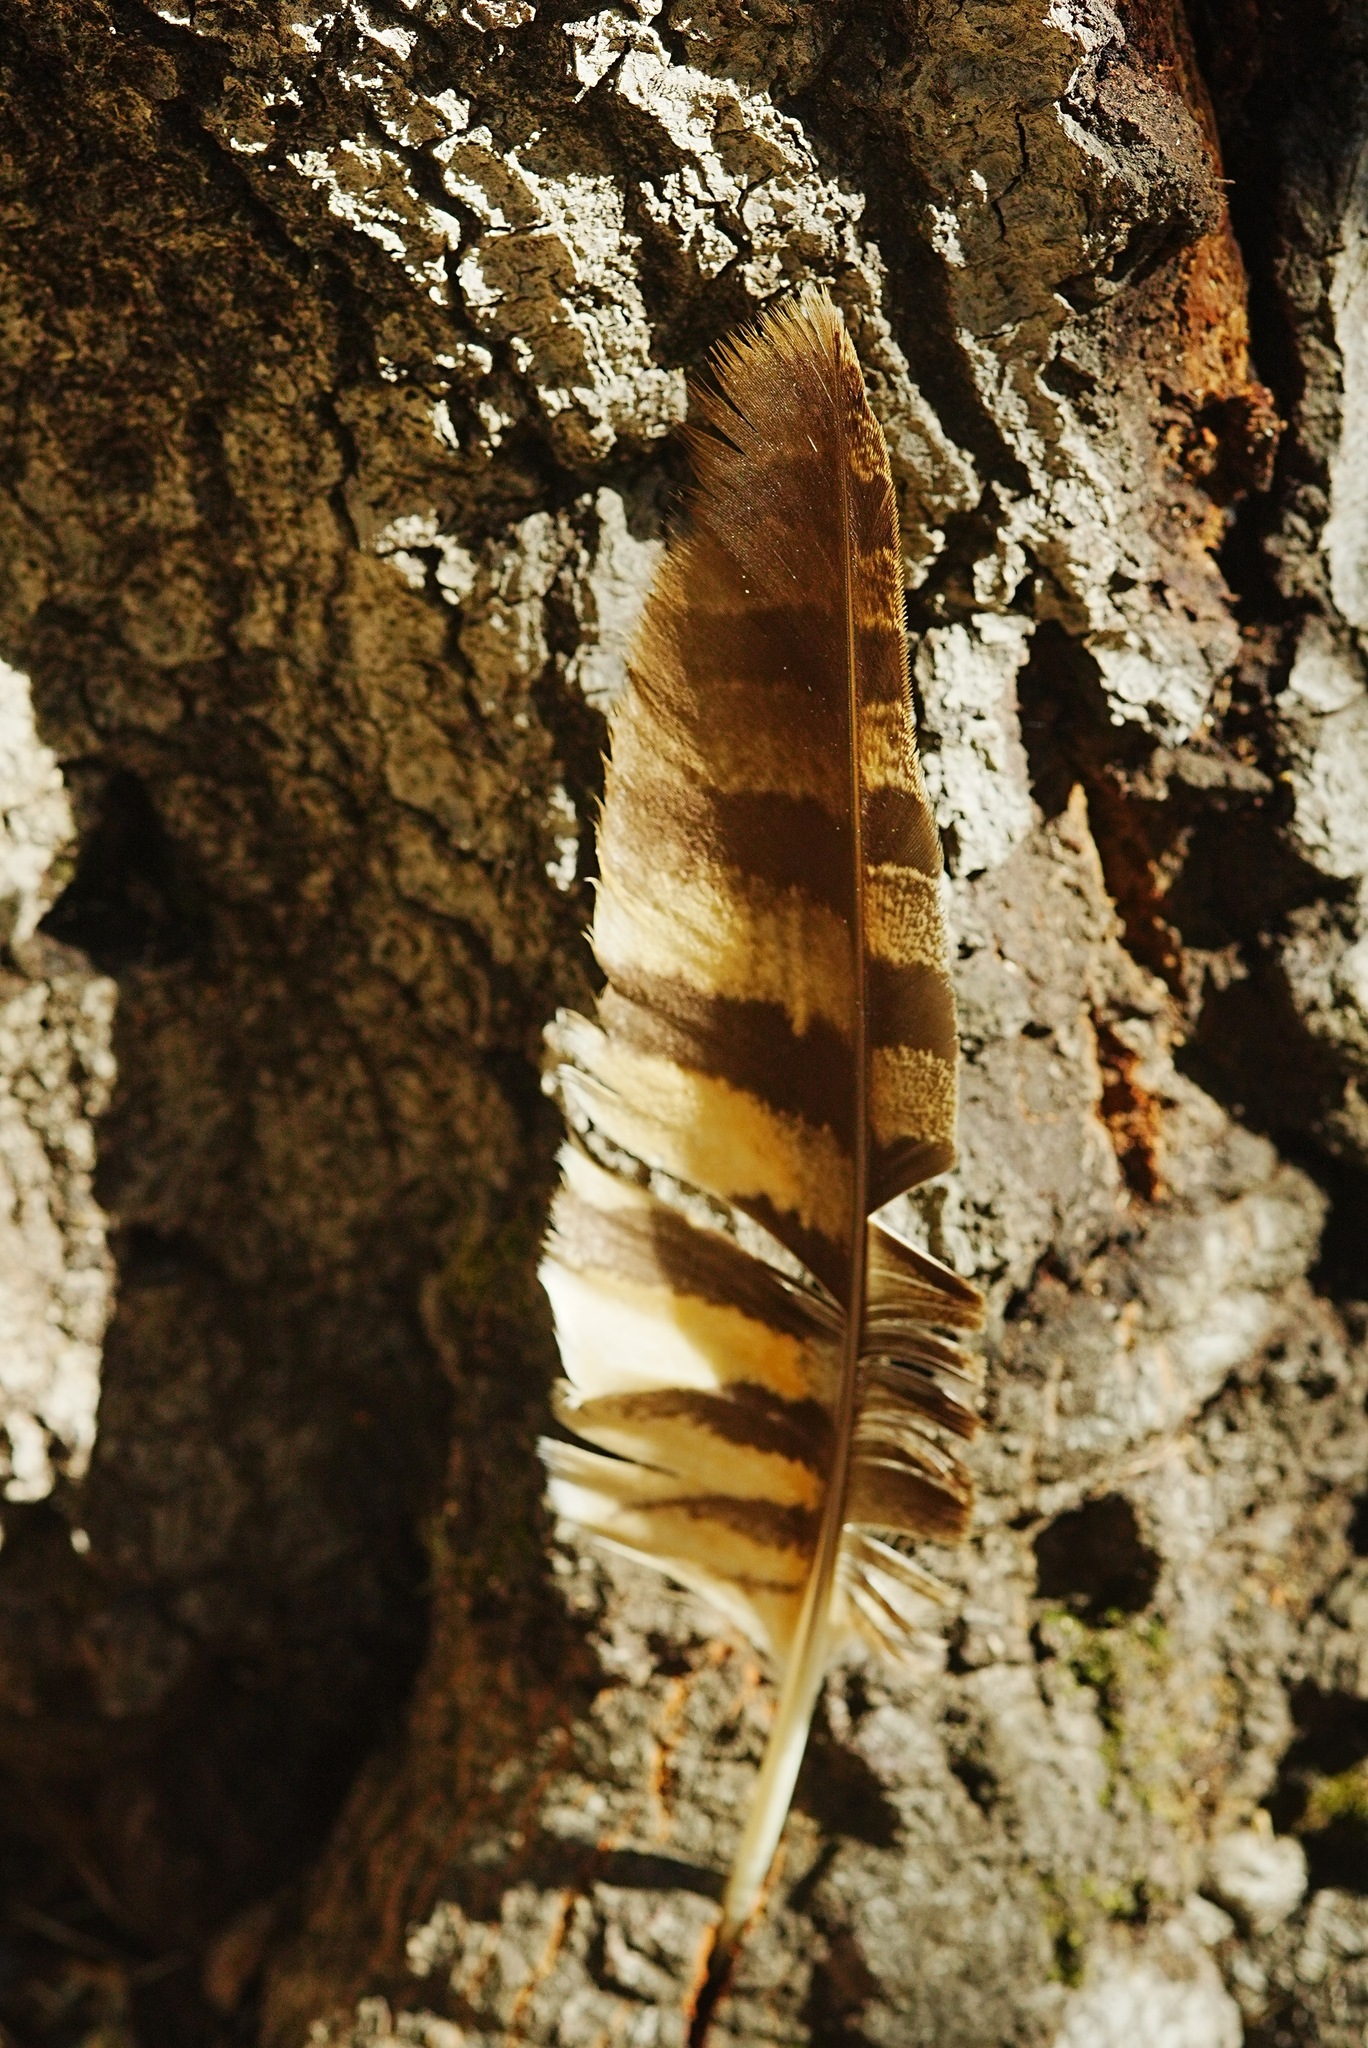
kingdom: Animalia
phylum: Chordata
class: Aves
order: Strigiformes
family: Strigidae
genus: Bubo
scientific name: Bubo virginianus
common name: Great horned owl
